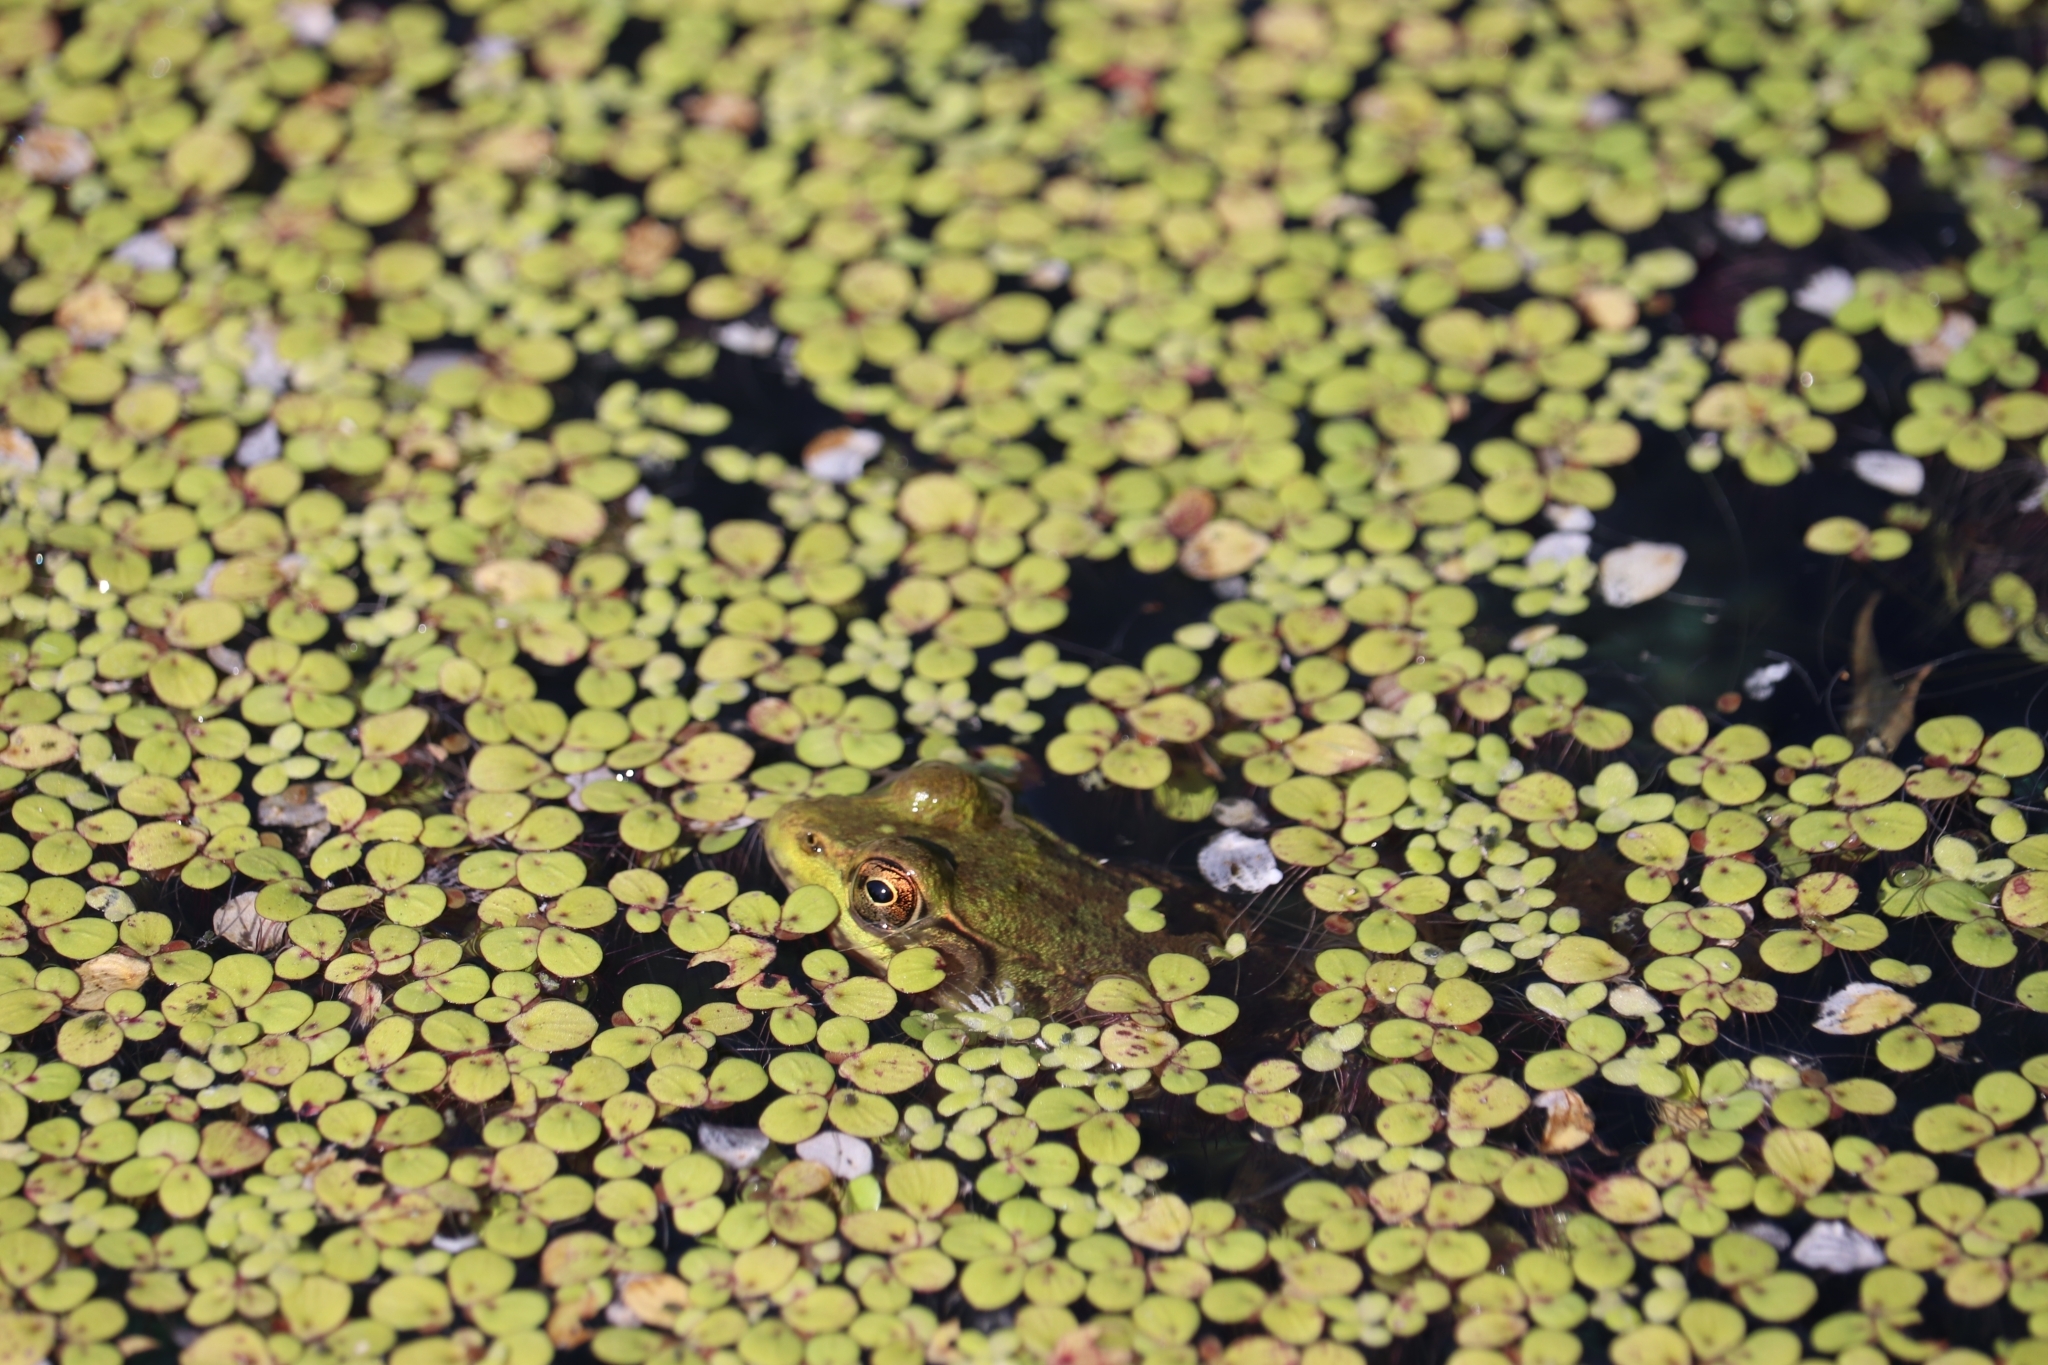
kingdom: Animalia
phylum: Chordata
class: Amphibia
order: Anura
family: Ranidae
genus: Lithobates
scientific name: Lithobates clamitans
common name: Green frog
